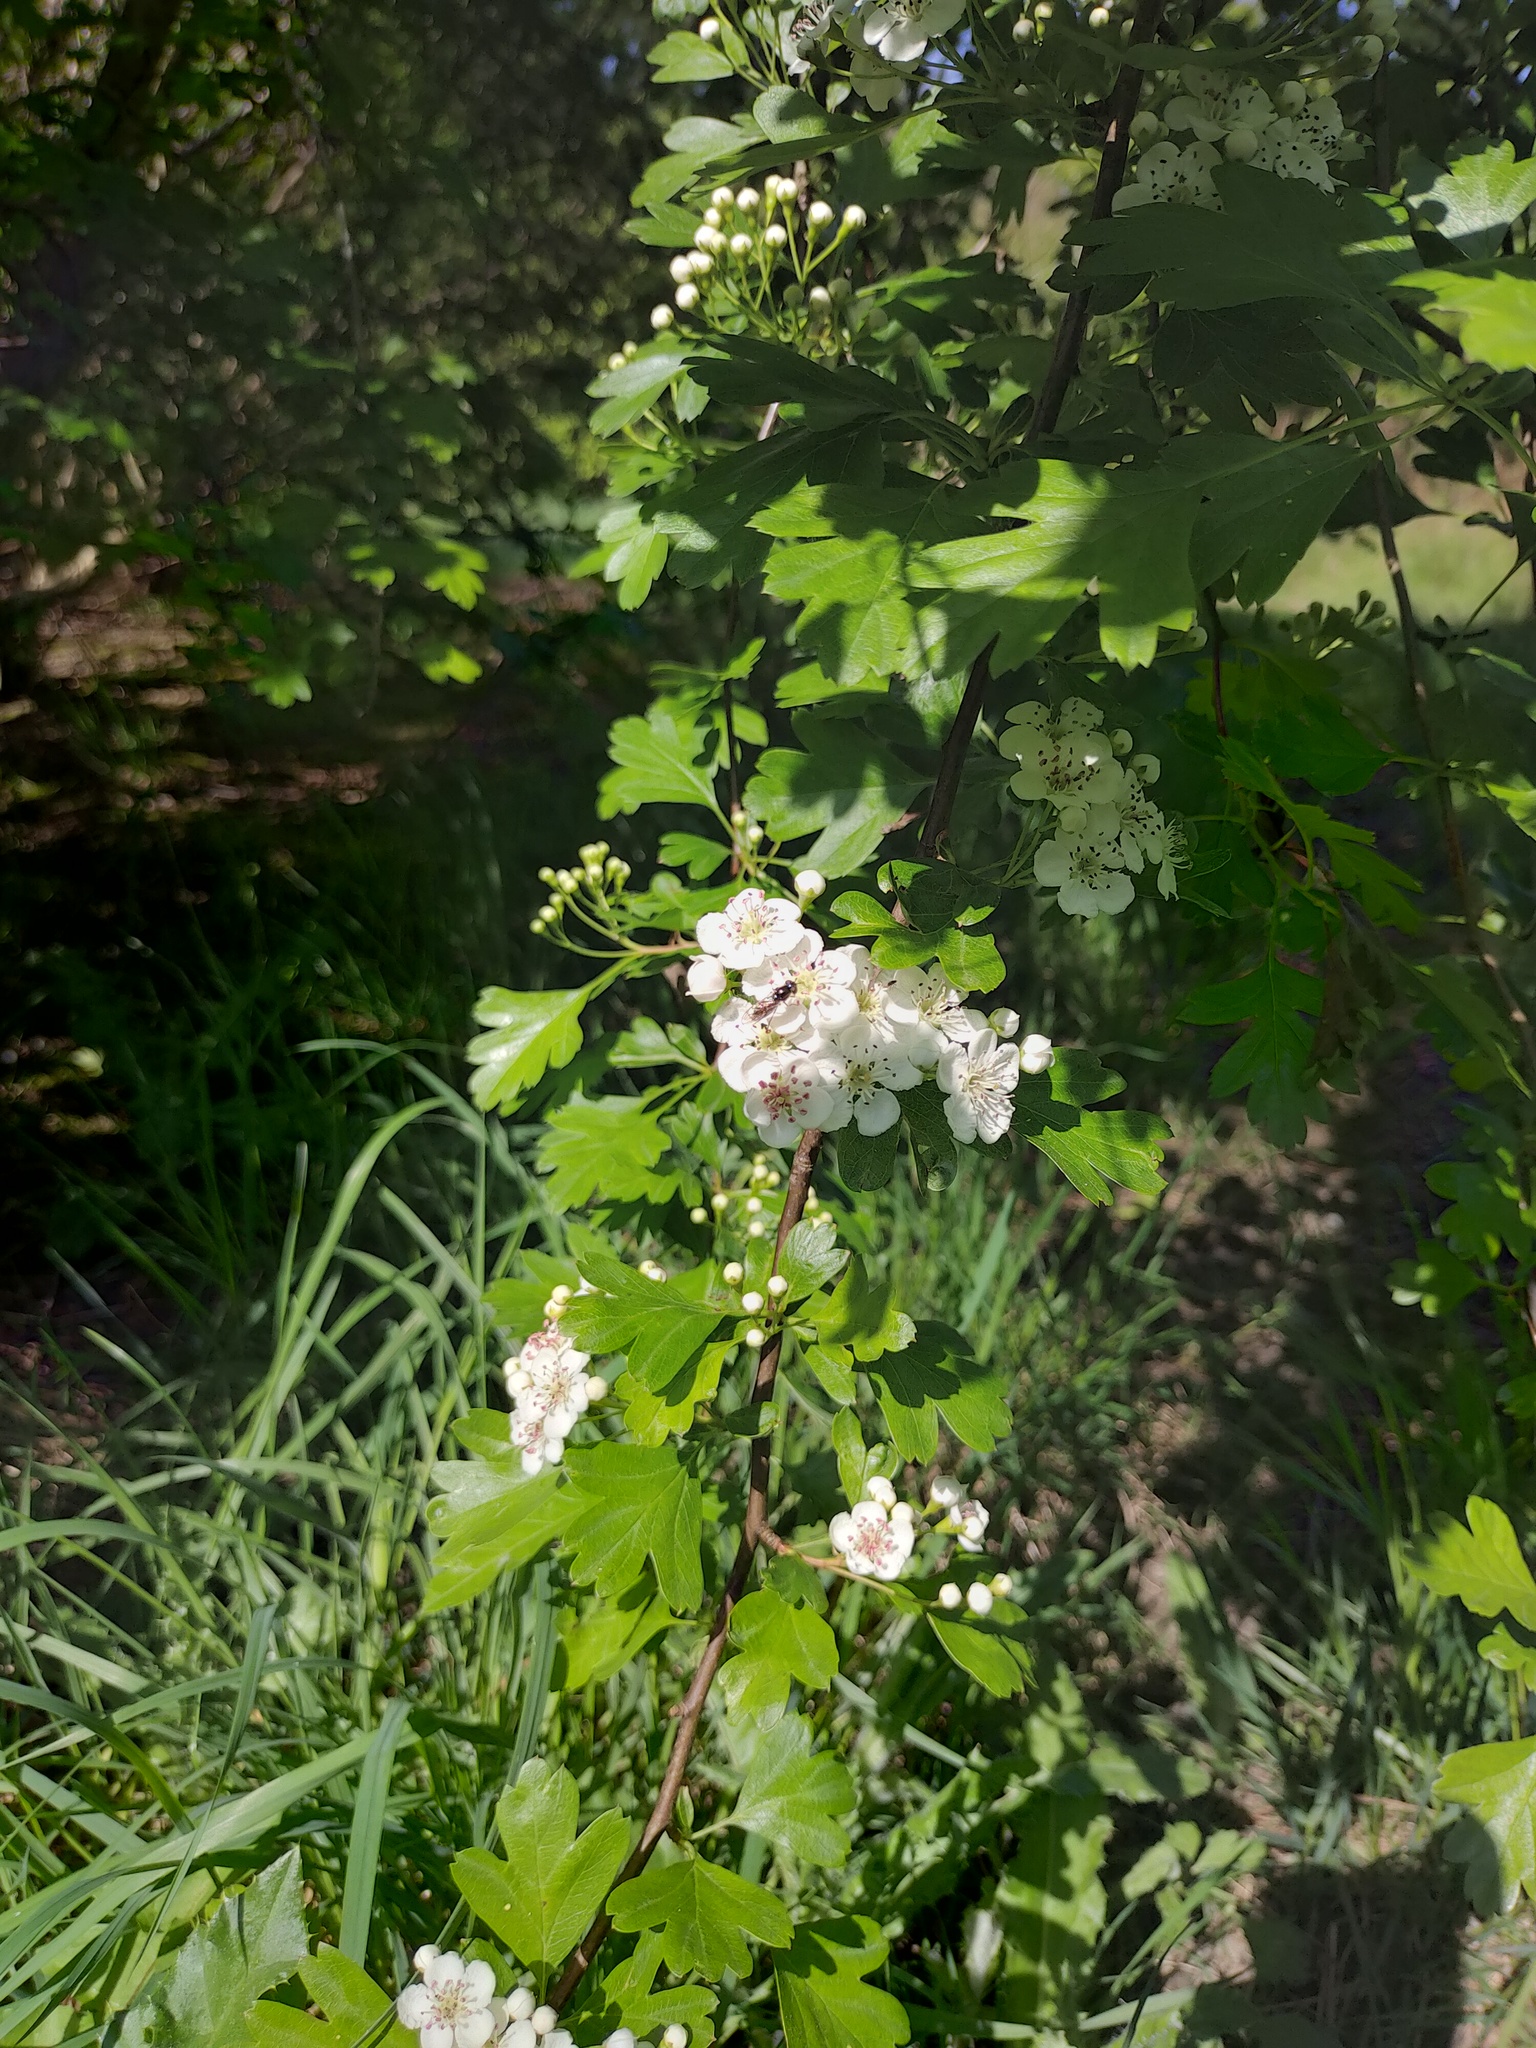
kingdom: Animalia
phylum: Arthropoda
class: Insecta
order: Diptera
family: Syrphidae
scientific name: Syrphidae
